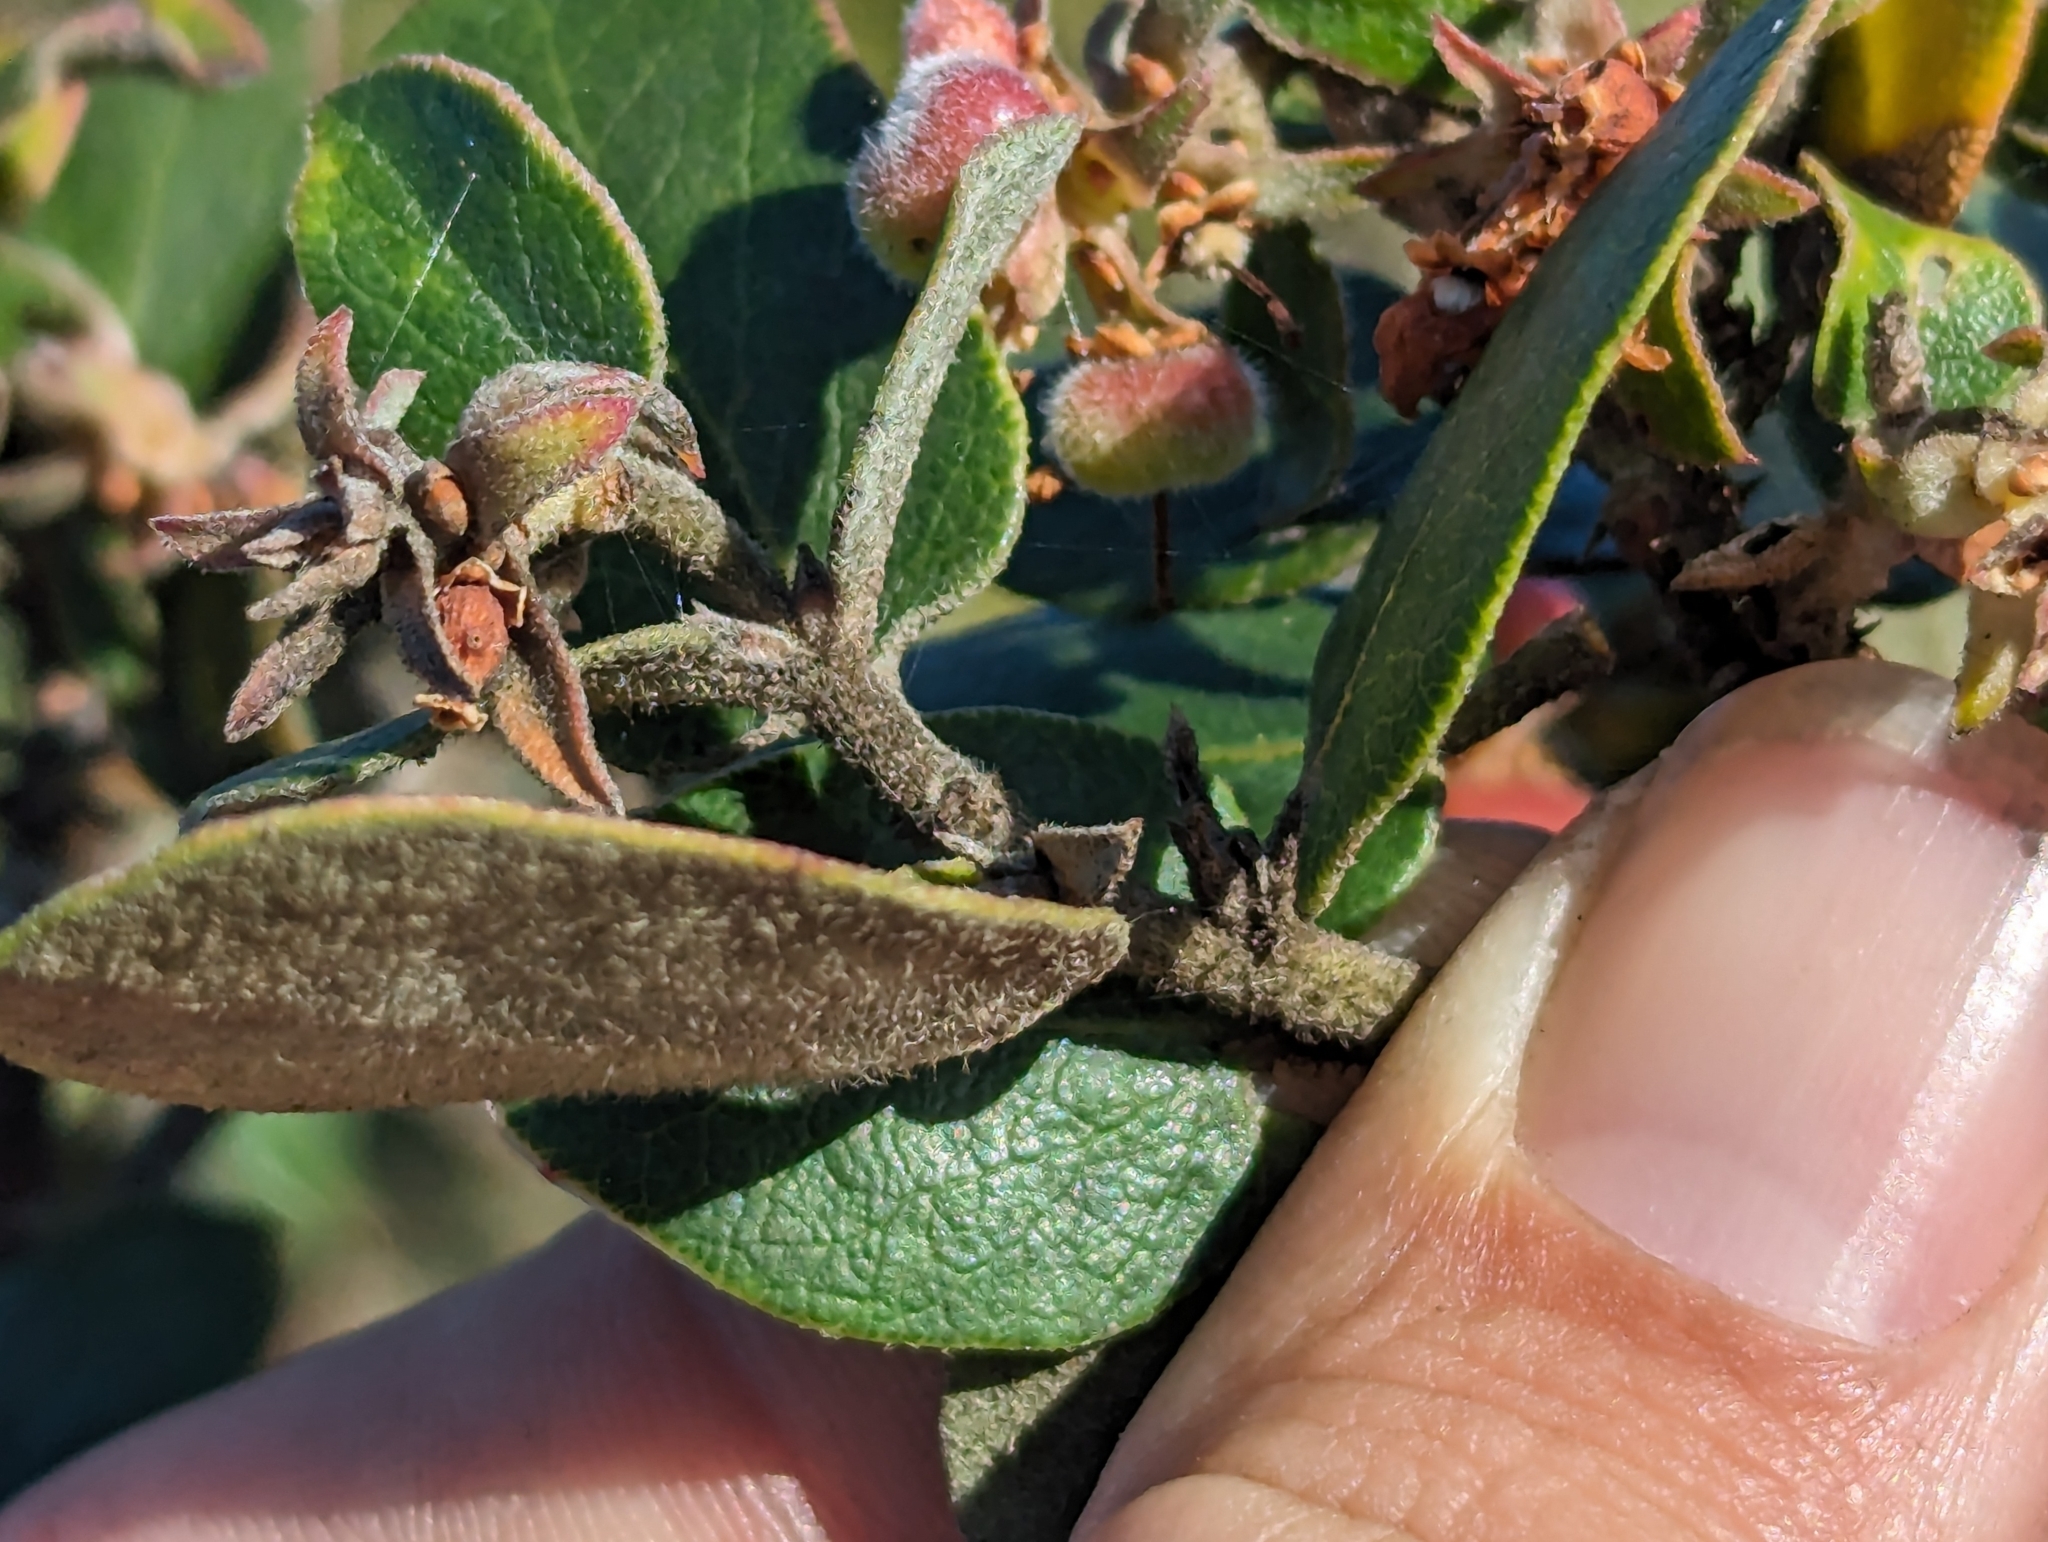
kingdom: Plantae
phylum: Tracheophyta
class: Magnoliopsida
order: Ericales
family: Ericaceae
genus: Arctostaphylos
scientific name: Arctostaphylos tomentosa
